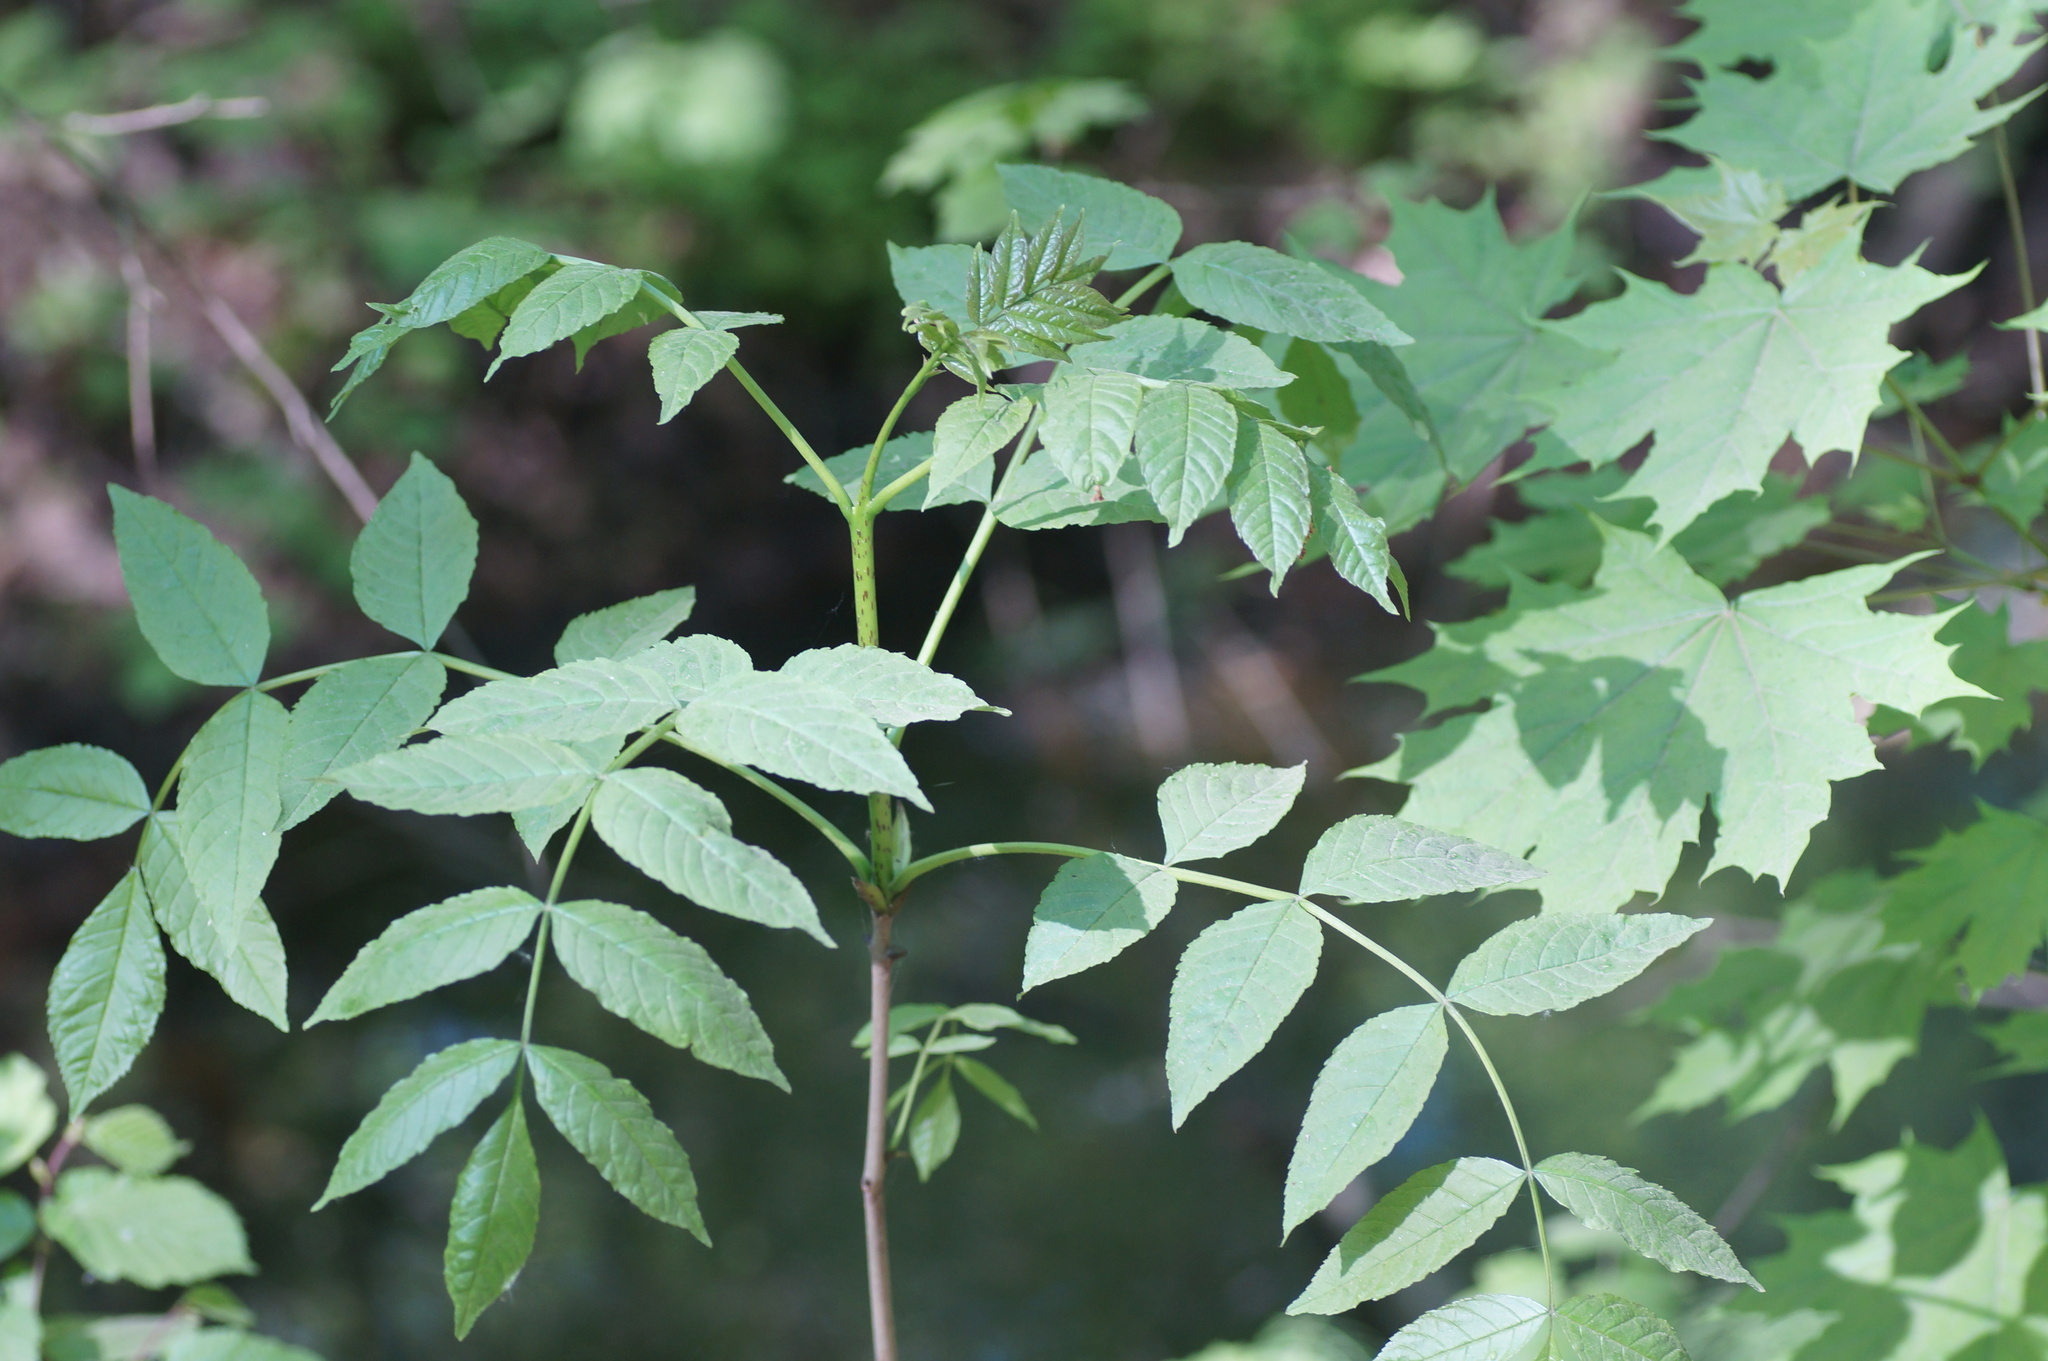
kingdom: Plantae
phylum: Tracheophyta
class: Magnoliopsida
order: Lamiales
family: Oleaceae
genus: Fraxinus
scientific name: Fraxinus excelsior
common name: European ash
